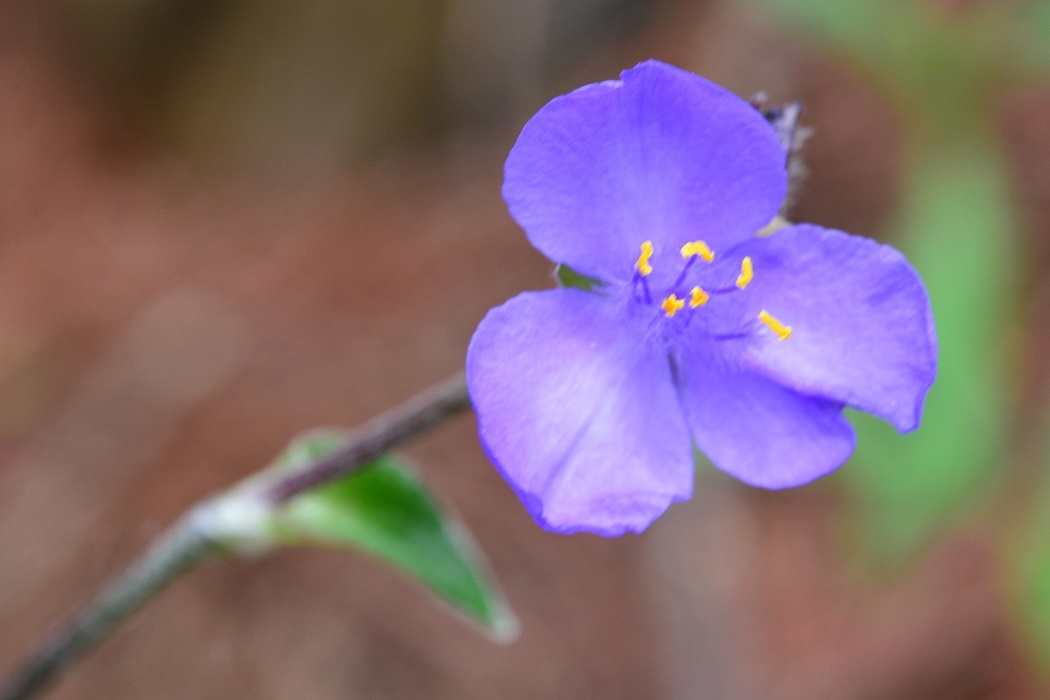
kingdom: Plantae
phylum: Tracheophyta
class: Liliopsida
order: Commelinales
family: Commelinaceae
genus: Tradescantia
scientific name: Tradescantia crassifolia
